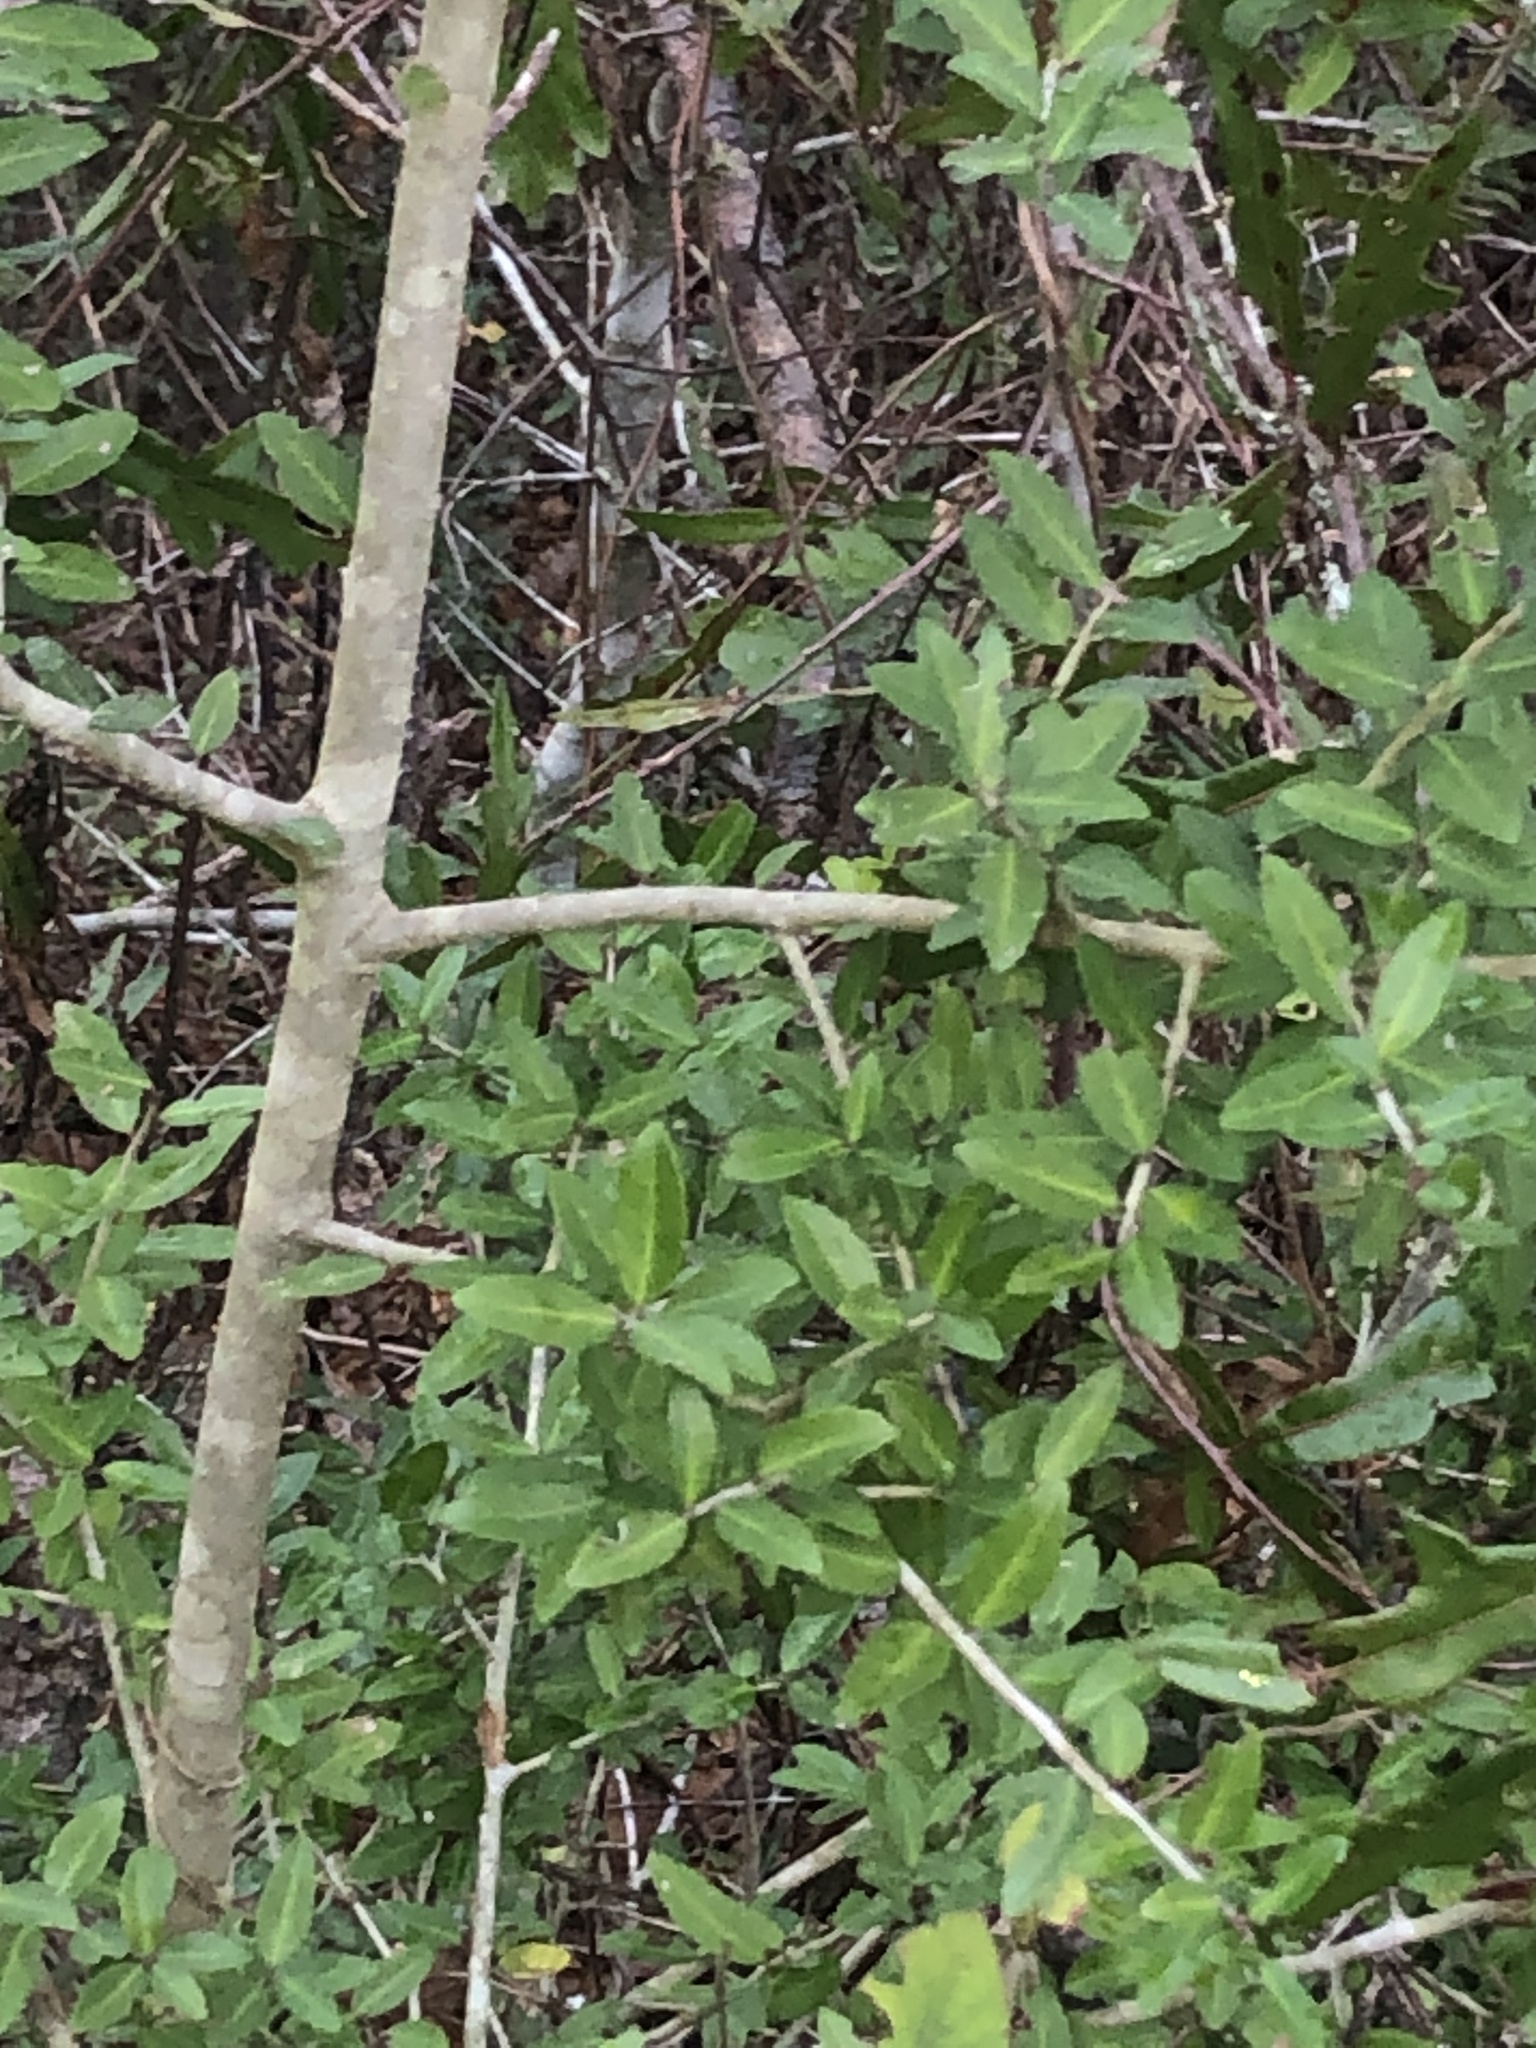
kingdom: Plantae
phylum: Tracheophyta
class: Magnoliopsida
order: Aquifoliales
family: Aquifoliaceae
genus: Ilex
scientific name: Ilex vomitoria
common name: Yaupon holly
